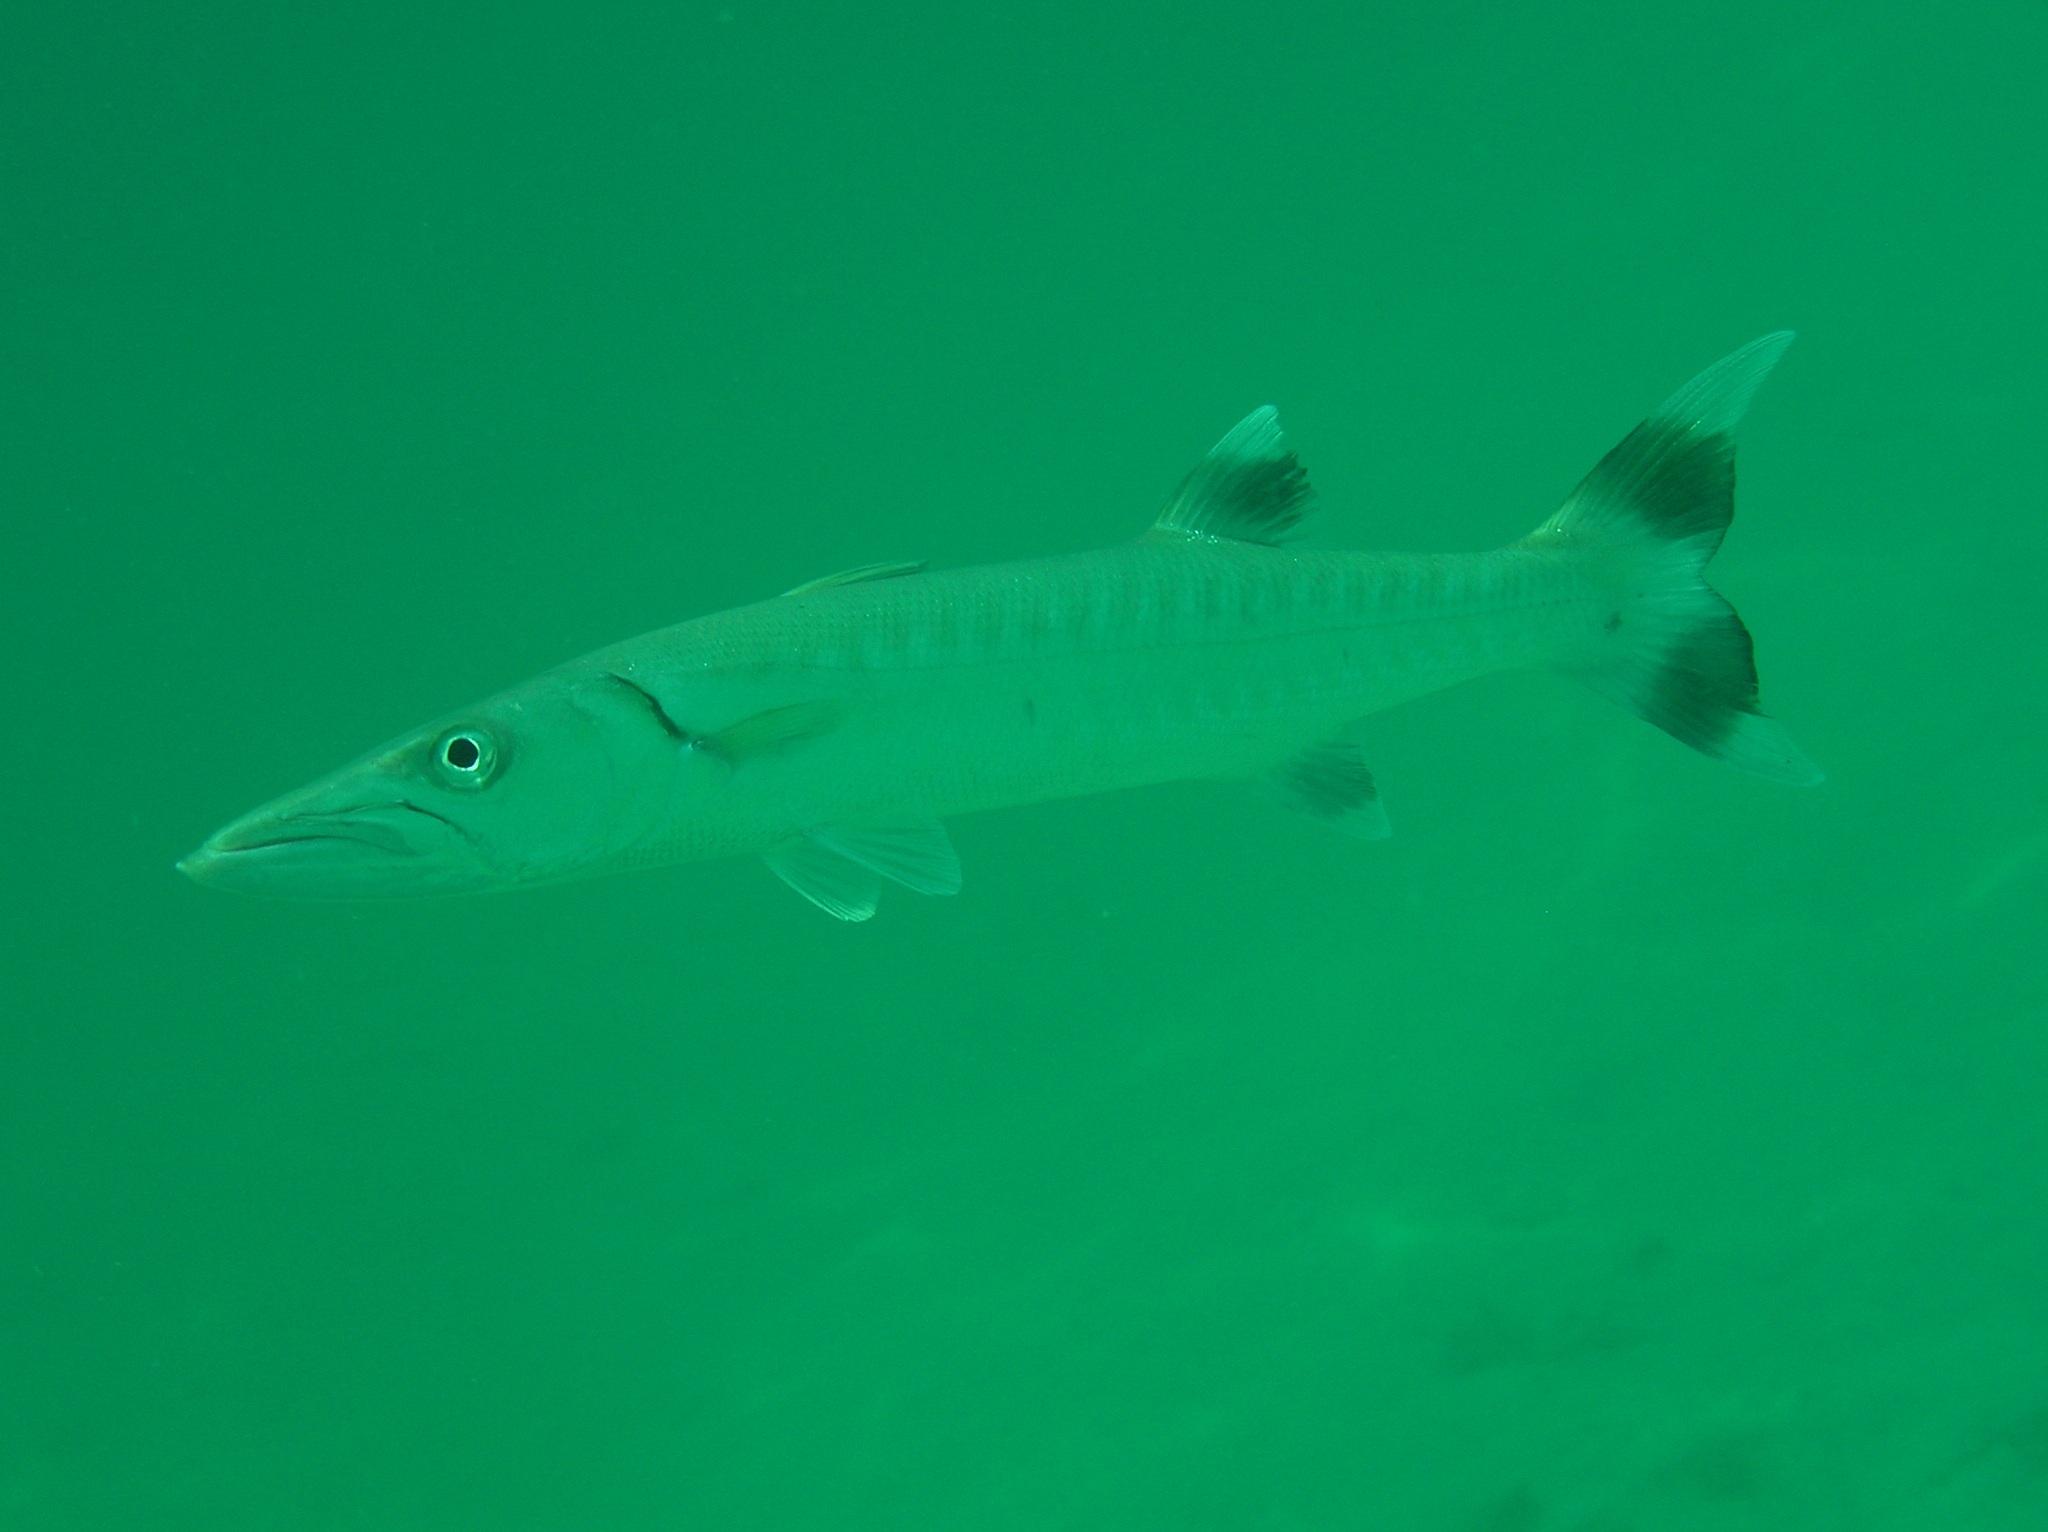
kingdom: Animalia
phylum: Chordata
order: Perciformes
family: Sphyraenidae
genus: Sphyraena
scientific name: Sphyraena barracuda
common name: Great barracuda
